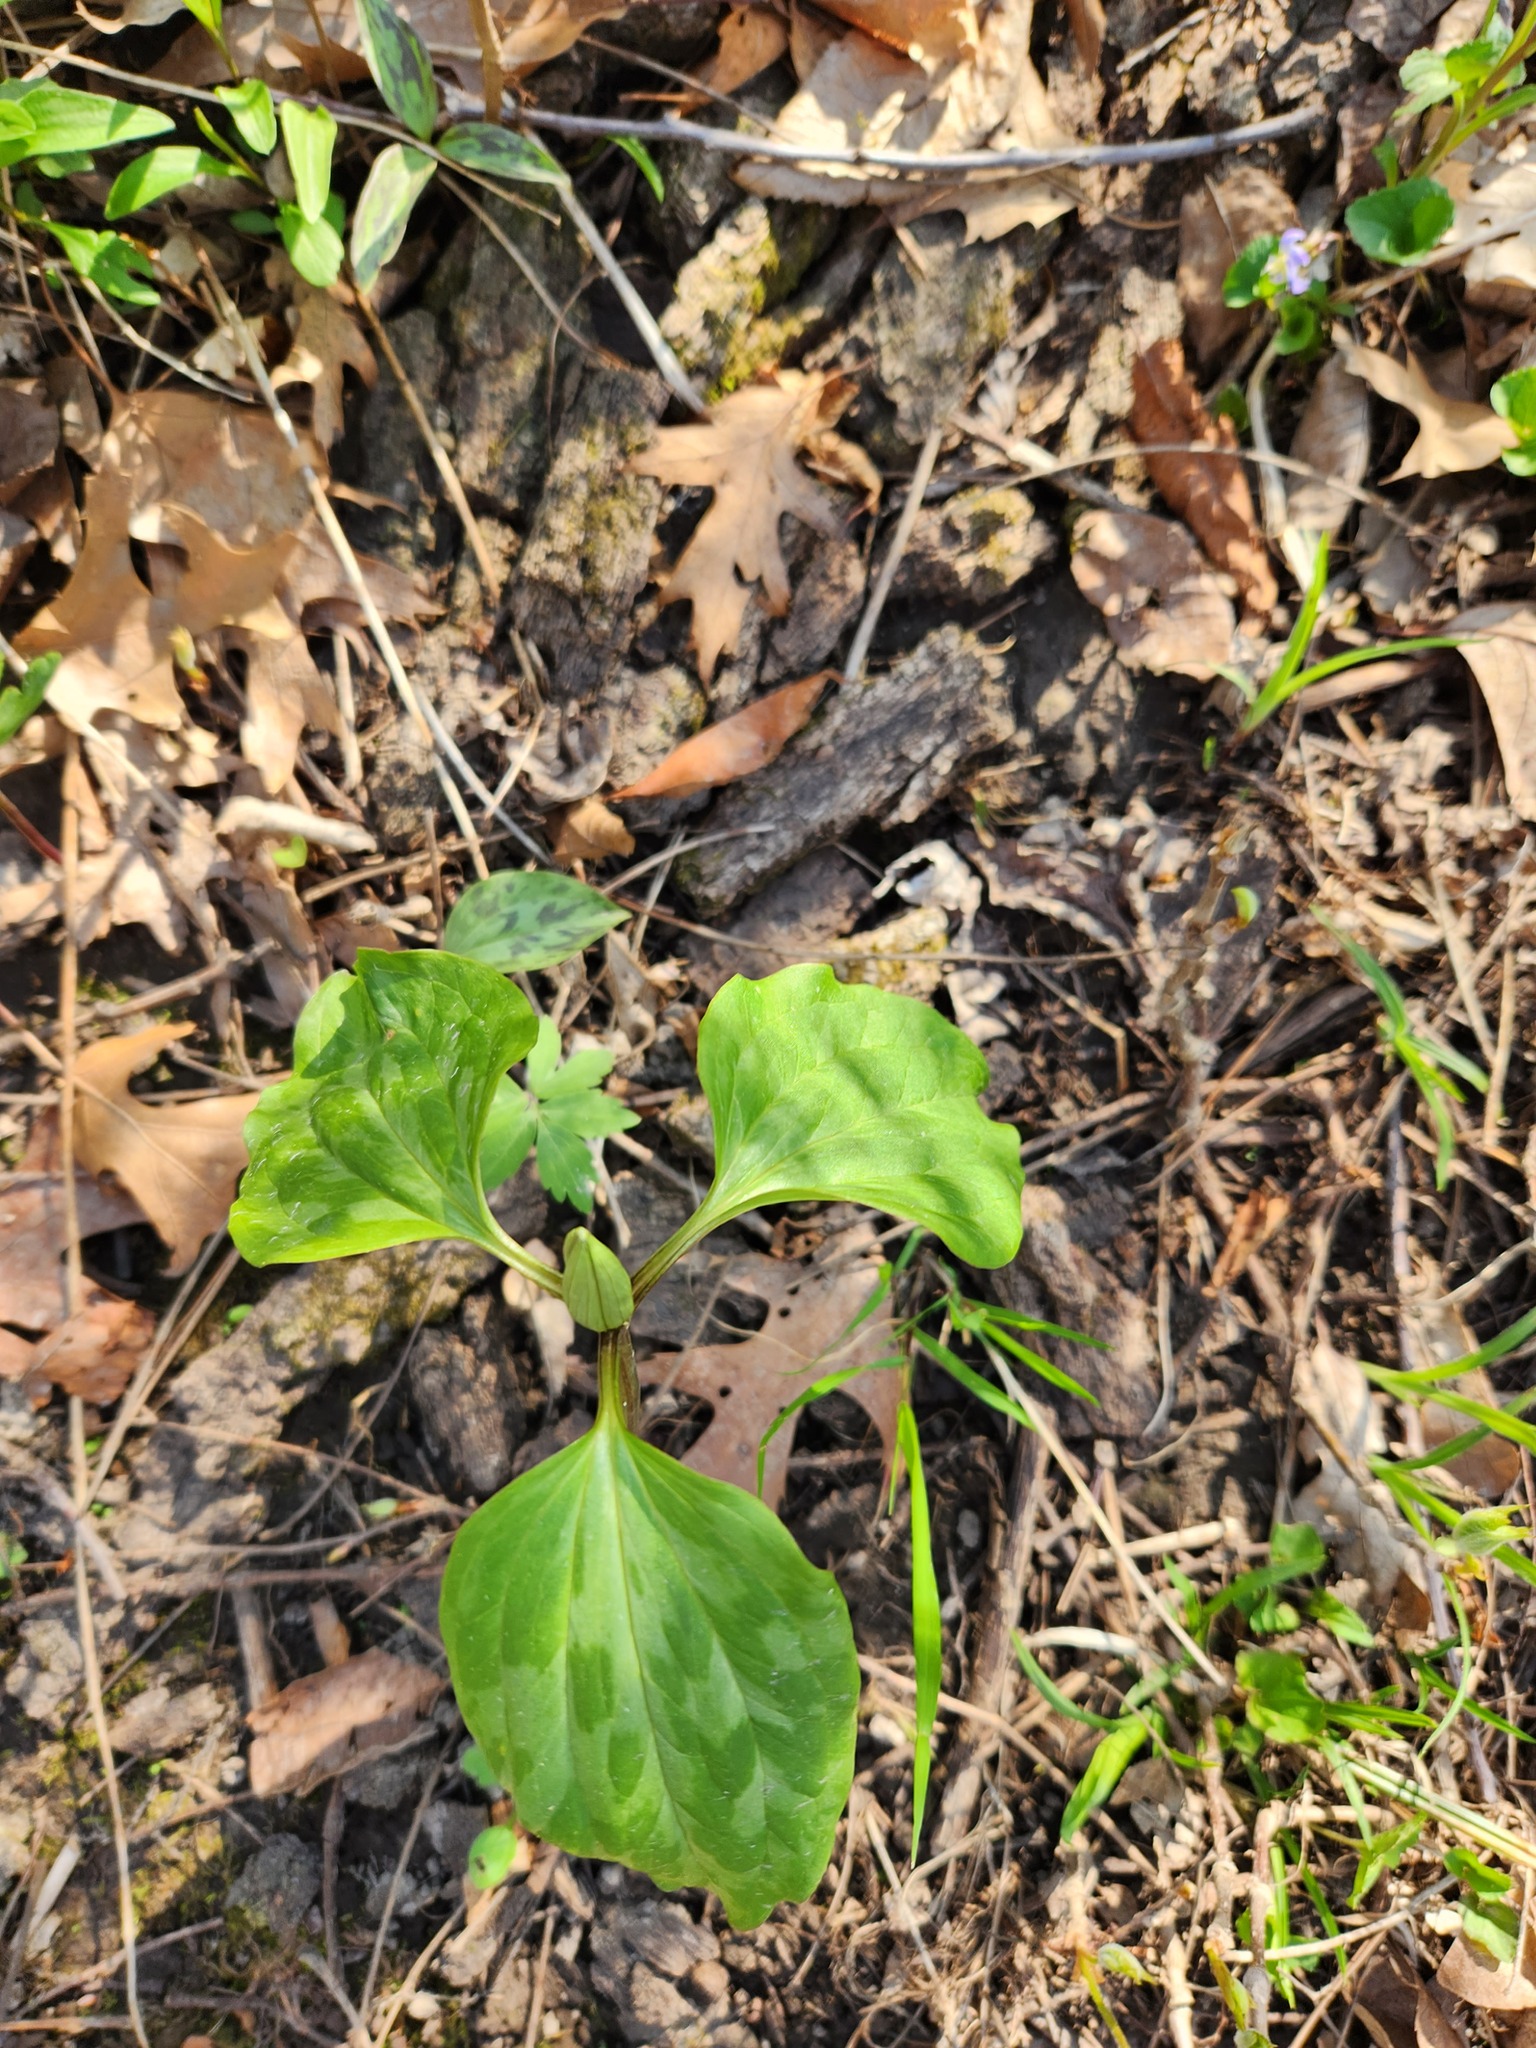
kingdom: Plantae
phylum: Tracheophyta
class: Liliopsida
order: Liliales
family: Melanthiaceae
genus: Trillium
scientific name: Trillium recurvatum
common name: Bloody butcher
